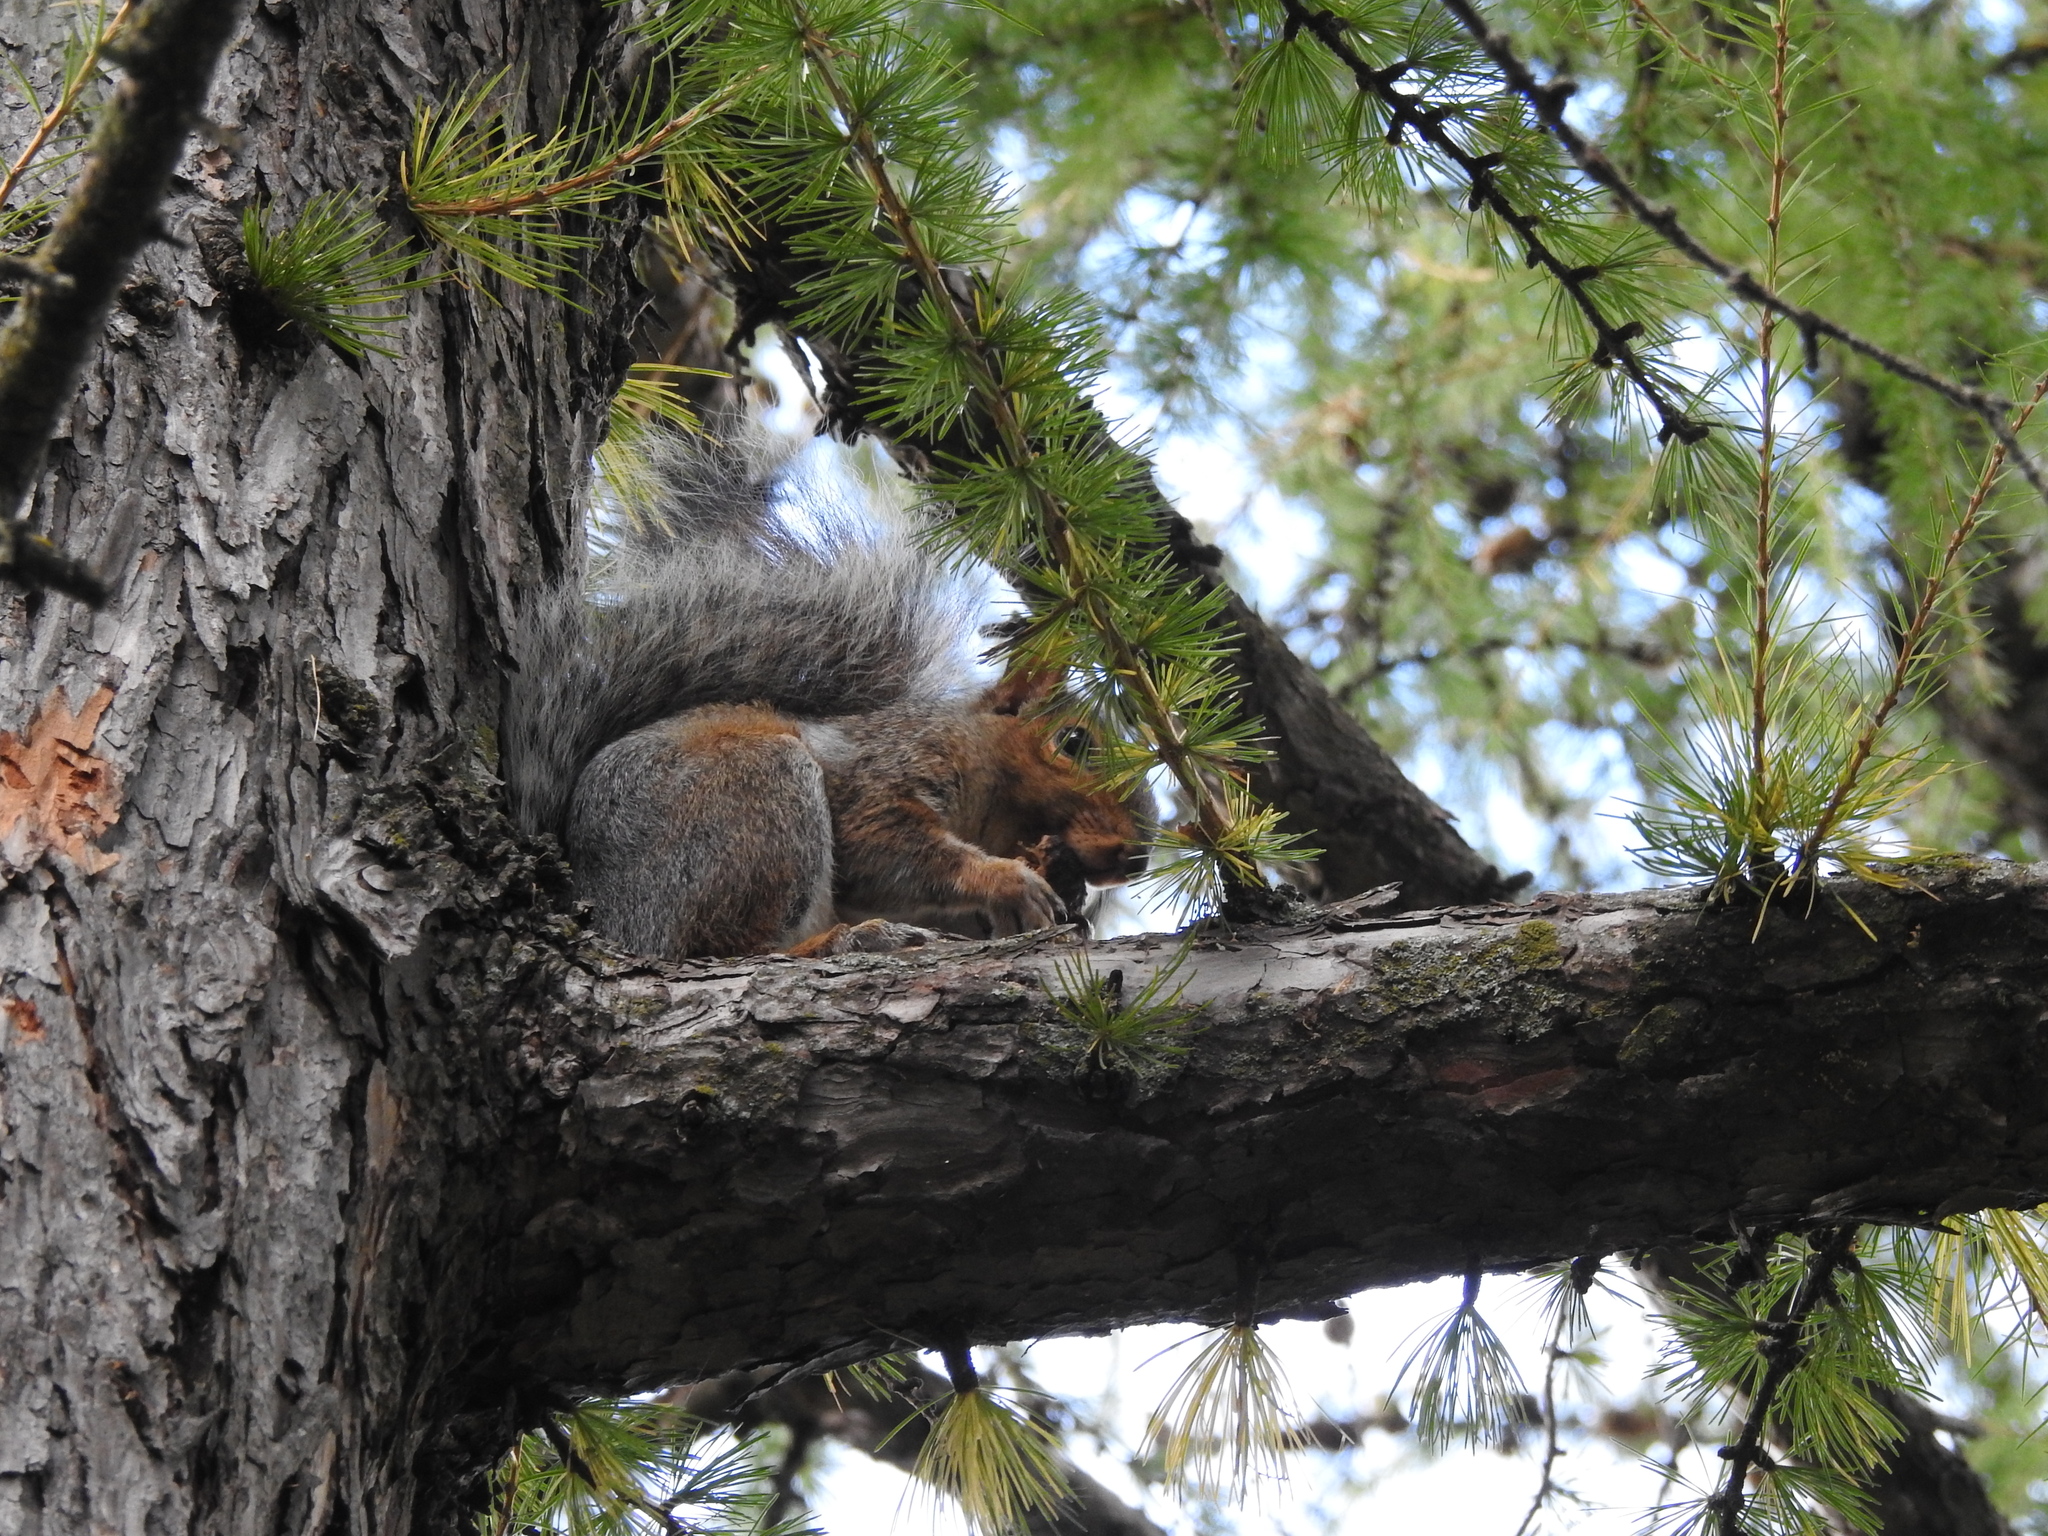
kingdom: Animalia
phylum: Chordata
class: Mammalia
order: Rodentia
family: Sciuridae
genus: Sciurus
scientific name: Sciurus carolinensis
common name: Eastern gray squirrel
